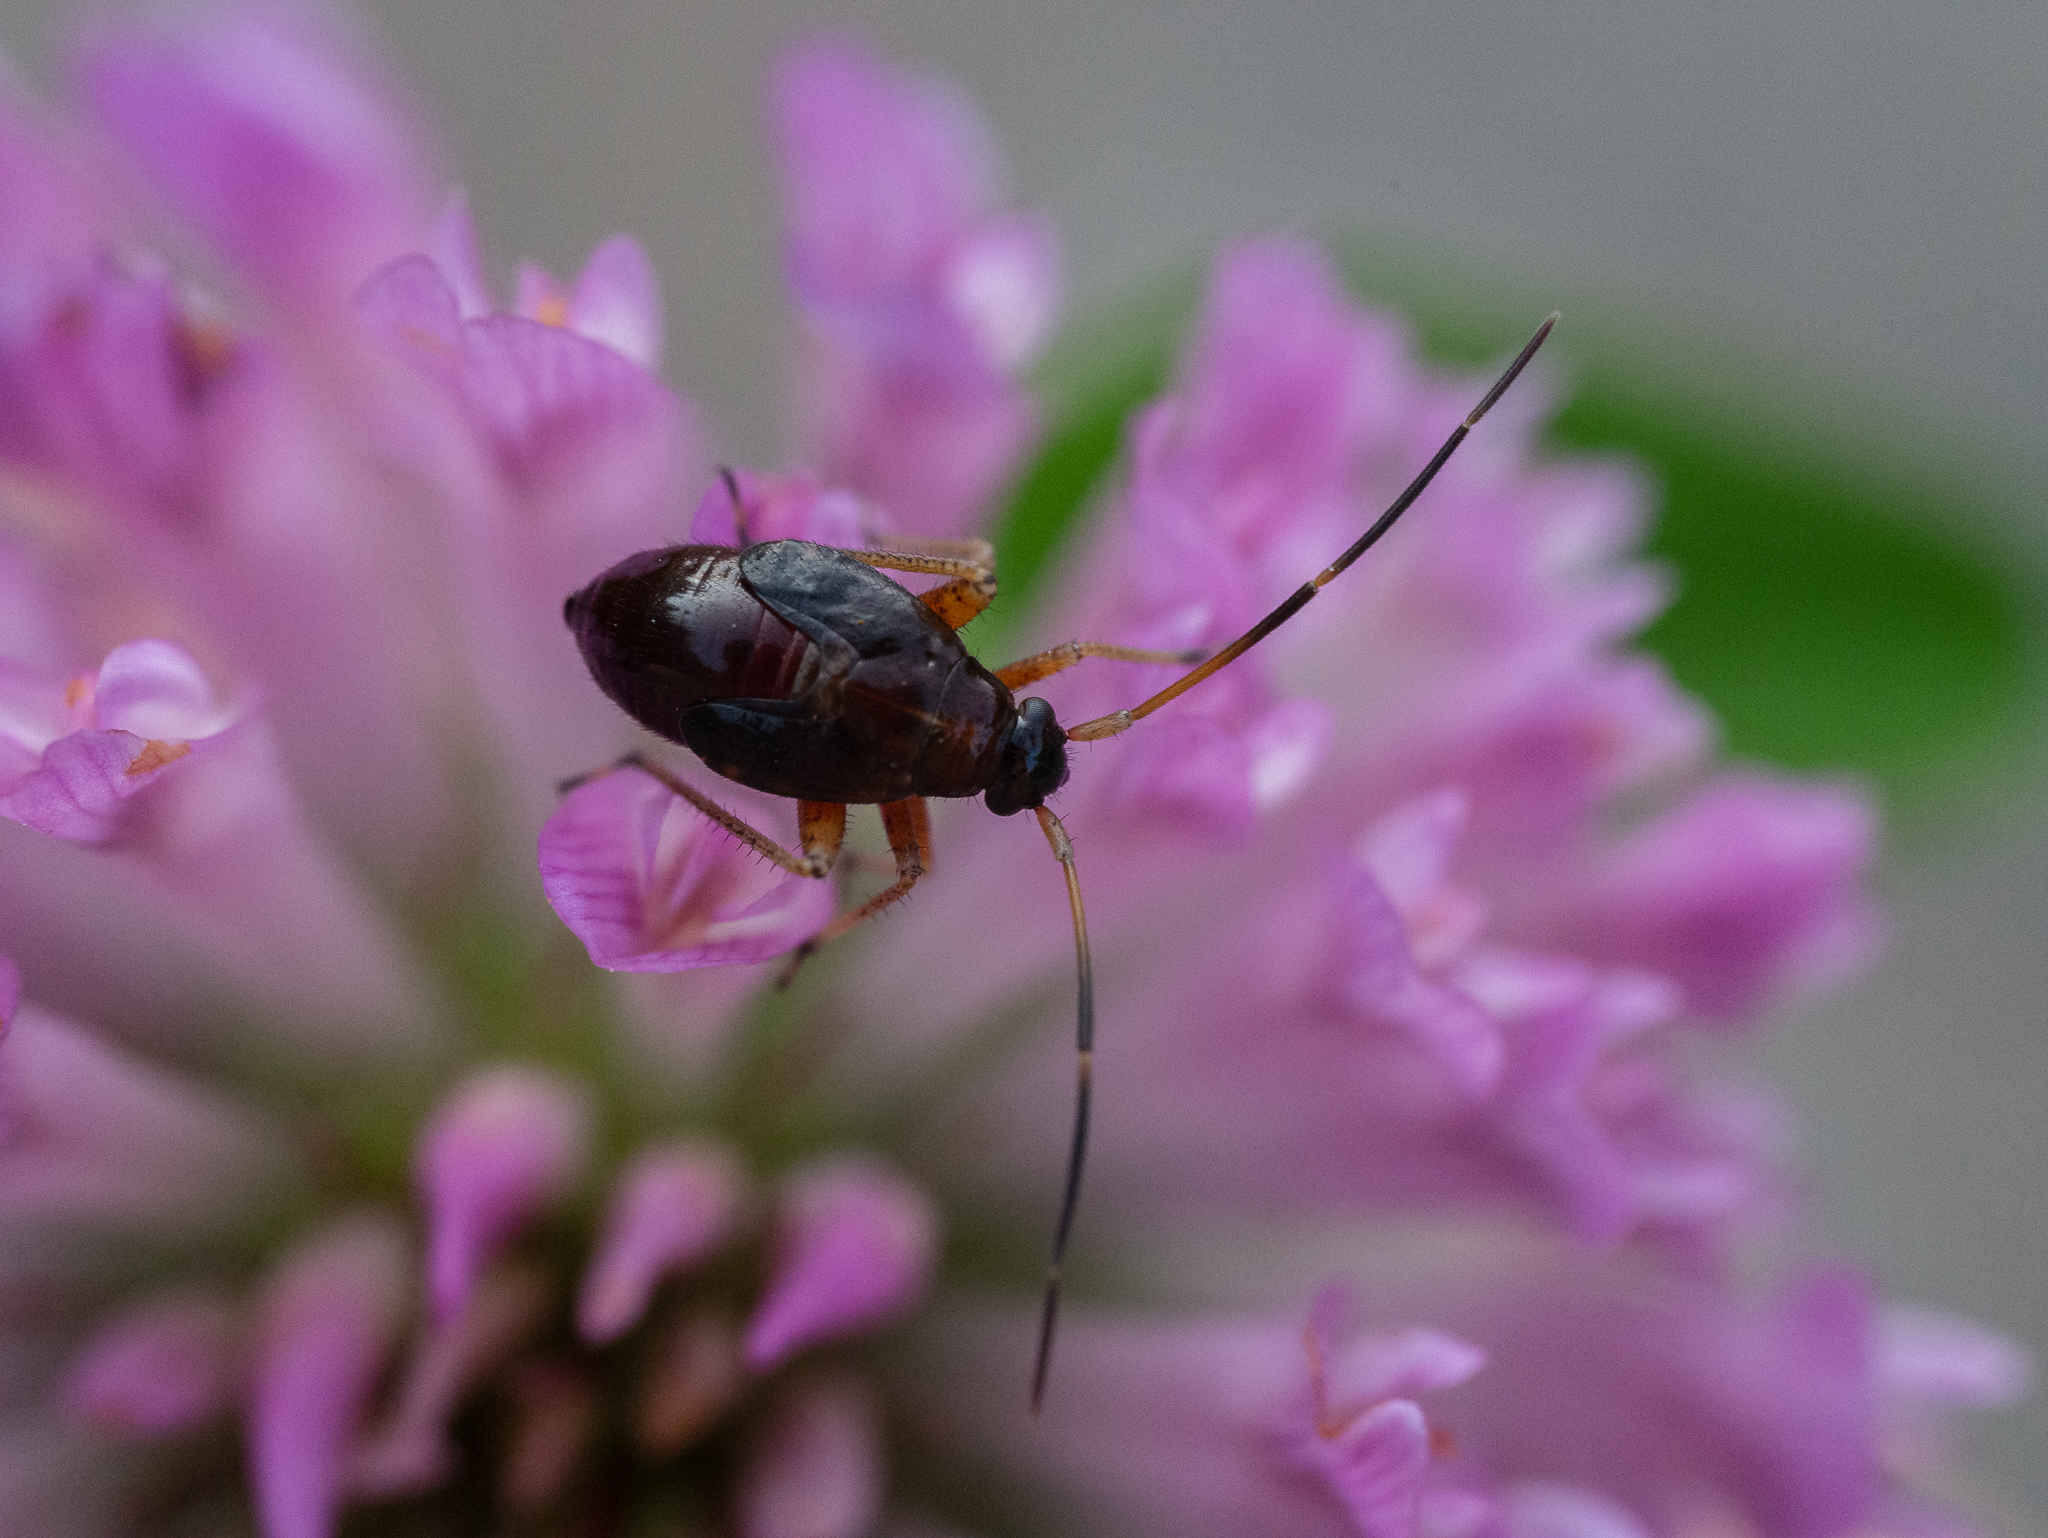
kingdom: Animalia
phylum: Arthropoda
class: Insecta
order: Hemiptera
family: Miridae
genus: Adelphocoris
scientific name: Adelphocoris seticornis
